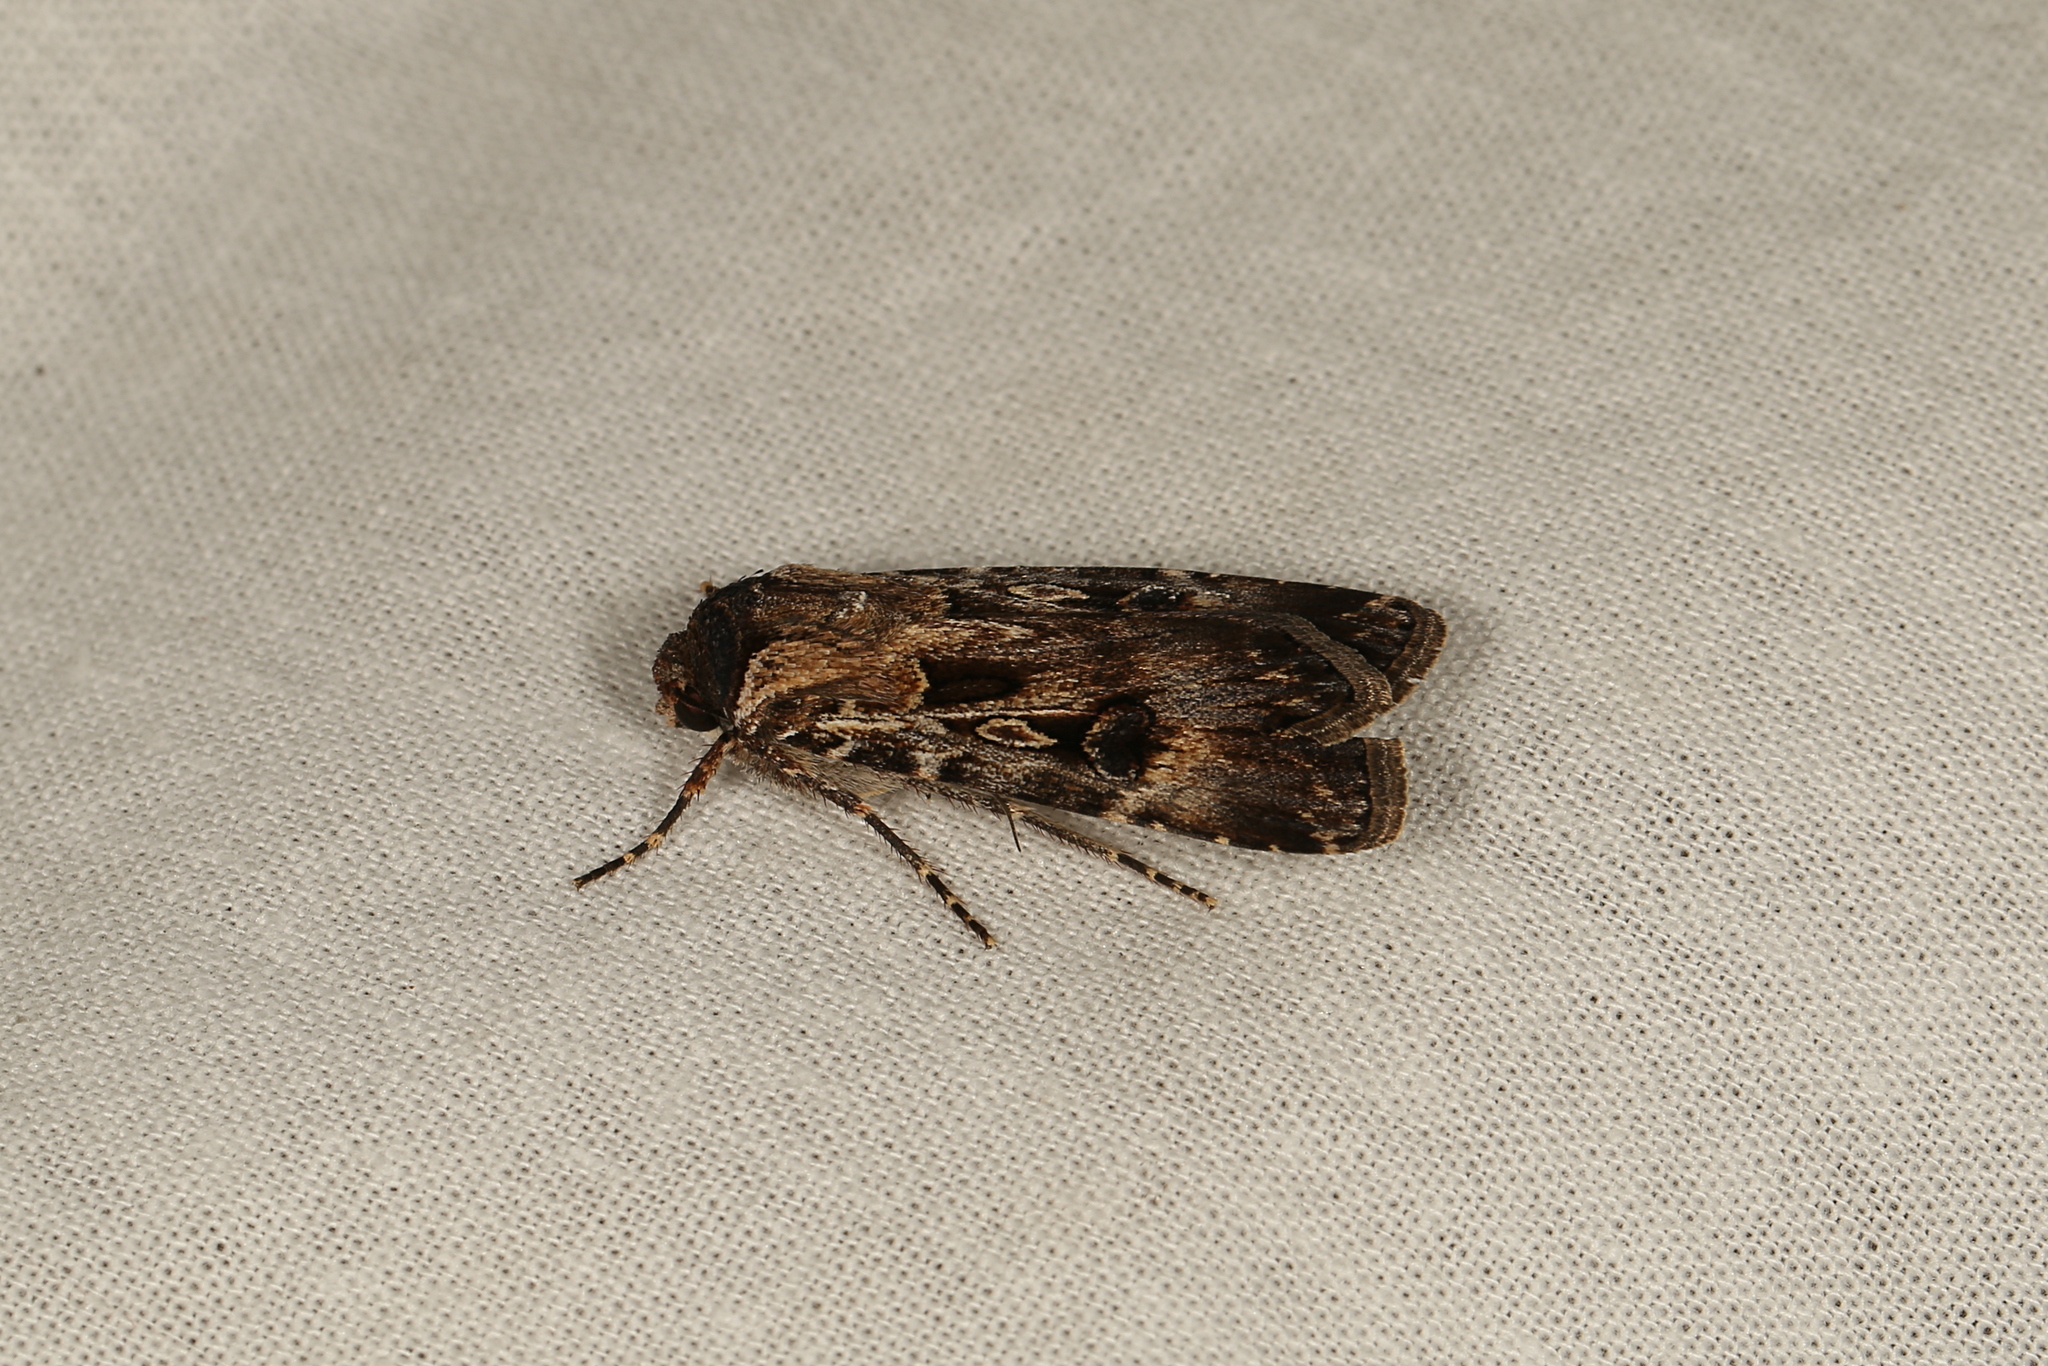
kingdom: Animalia
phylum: Arthropoda
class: Insecta
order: Lepidoptera
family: Noctuidae
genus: Agrotis
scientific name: Agrotis munda
